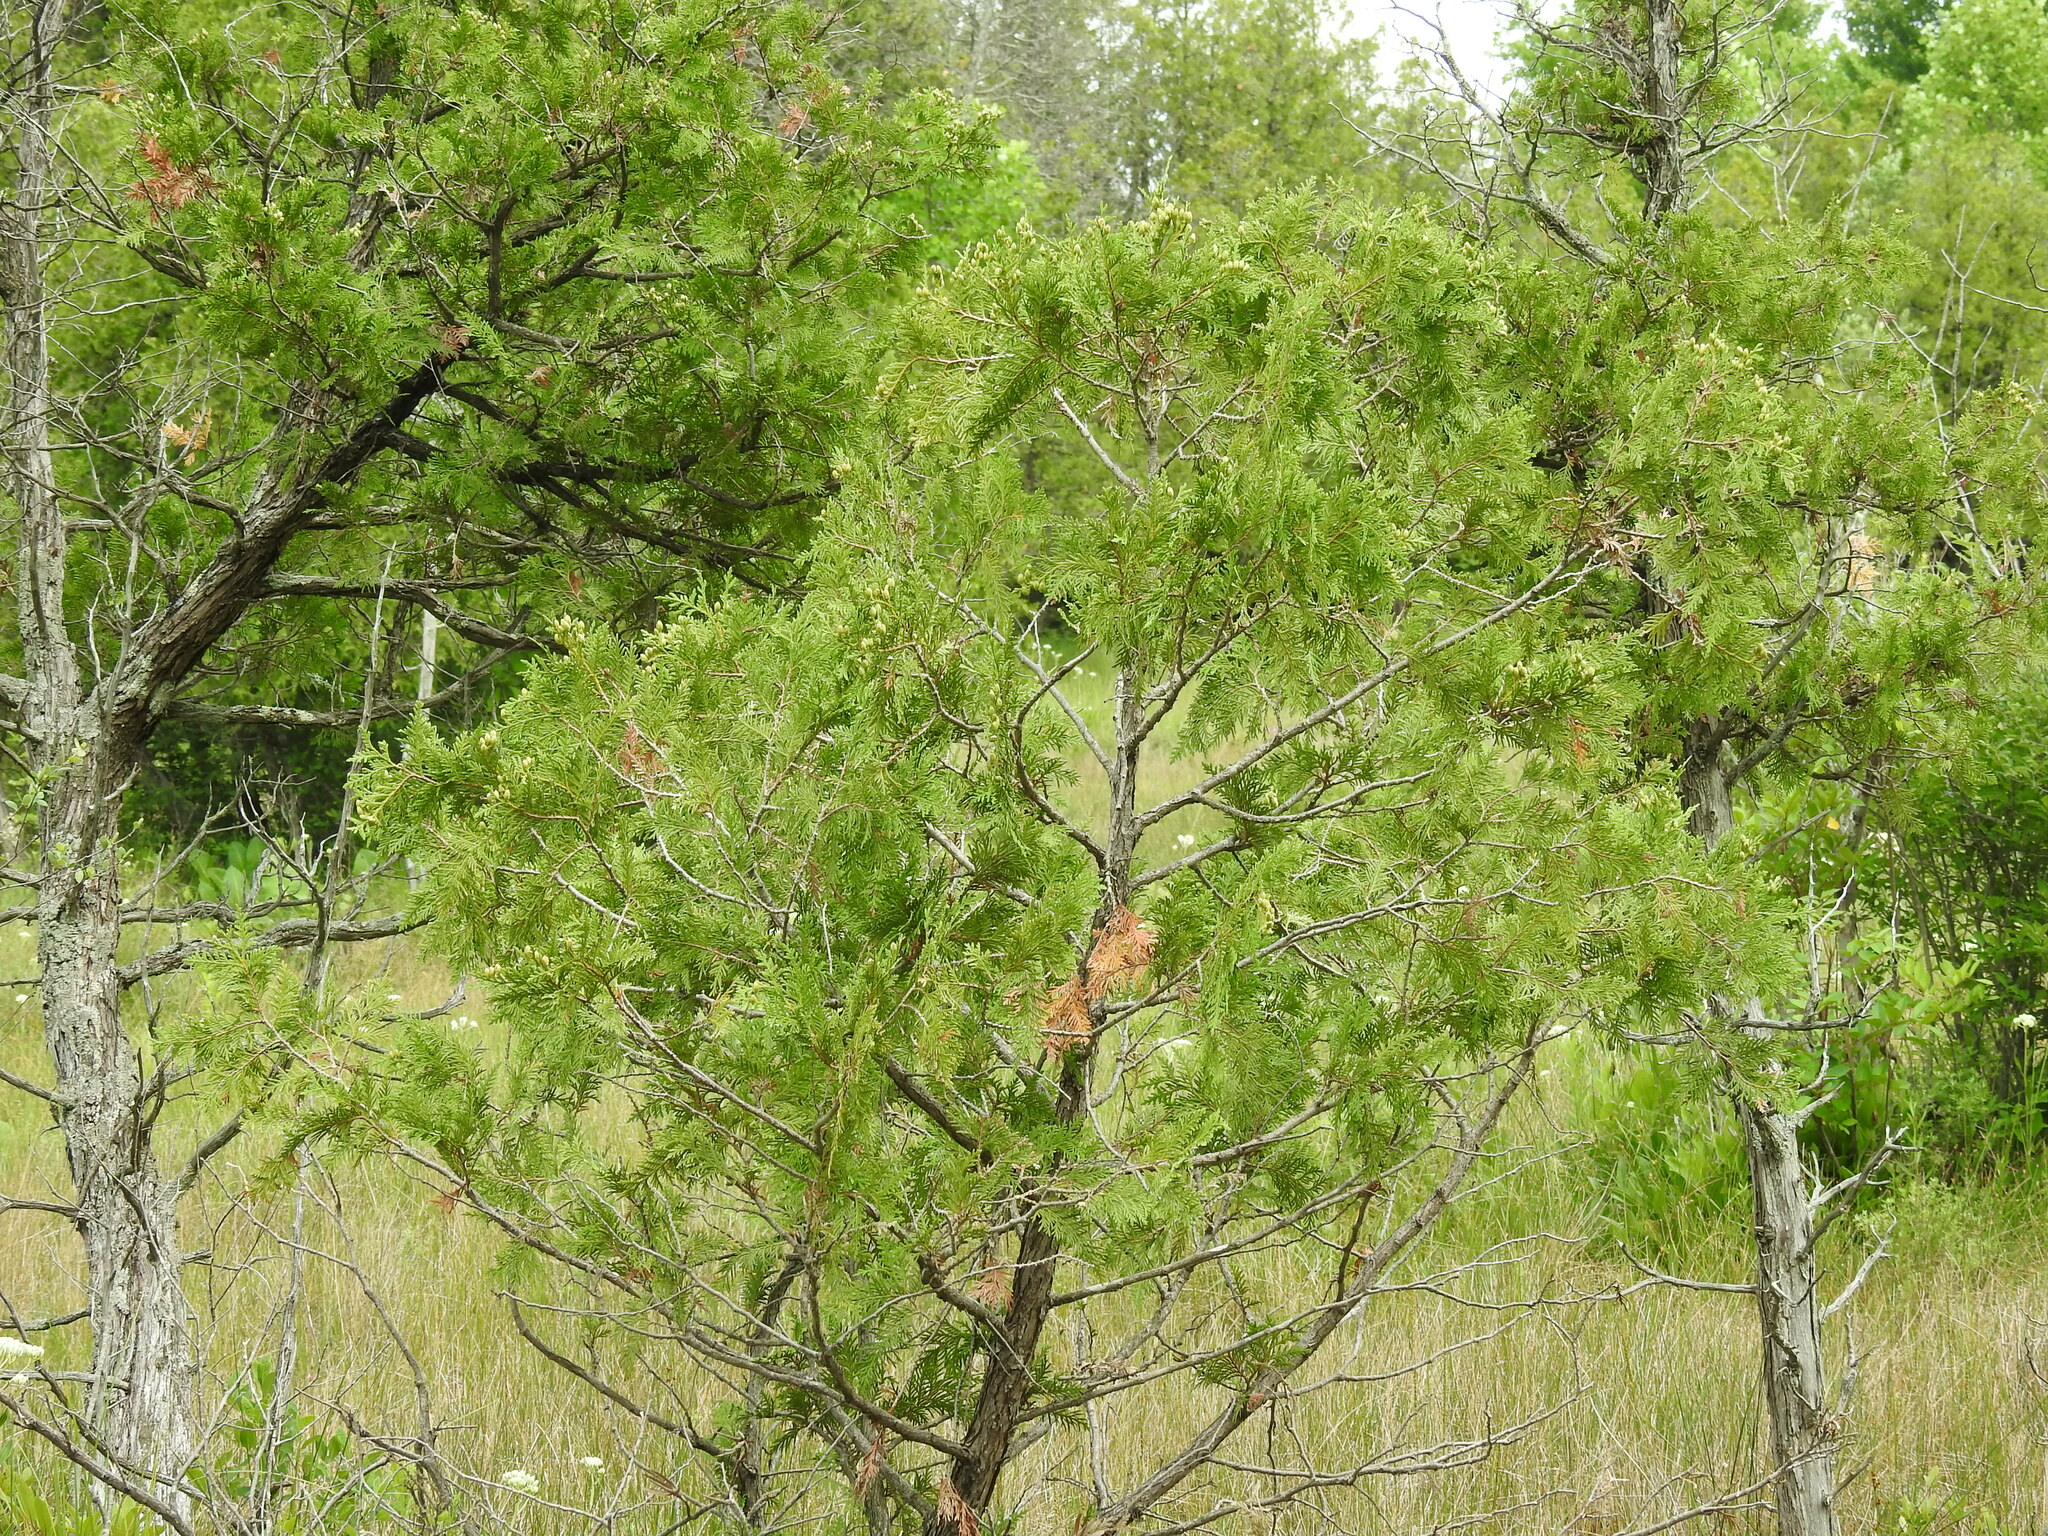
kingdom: Plantae
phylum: Tracheophyta
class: Pinopsida
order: Pinales
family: Cupressaceae
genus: Thuja
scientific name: Thuja occidentalis
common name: Northern white-cedar
